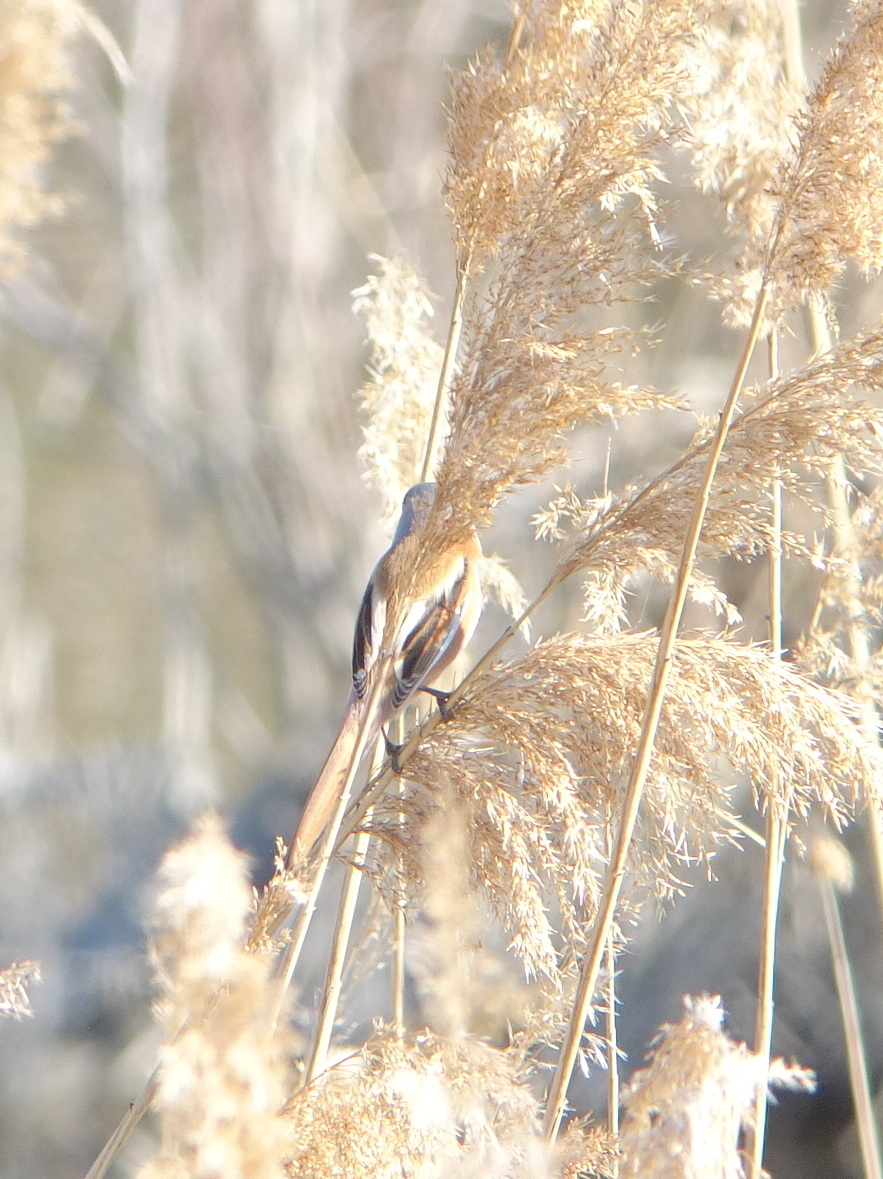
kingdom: Animalia
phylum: Chordata
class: Aves
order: Passeriformes
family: Panuridae
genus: Panurus
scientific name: Panurus biarmicus
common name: Bearded reedling
